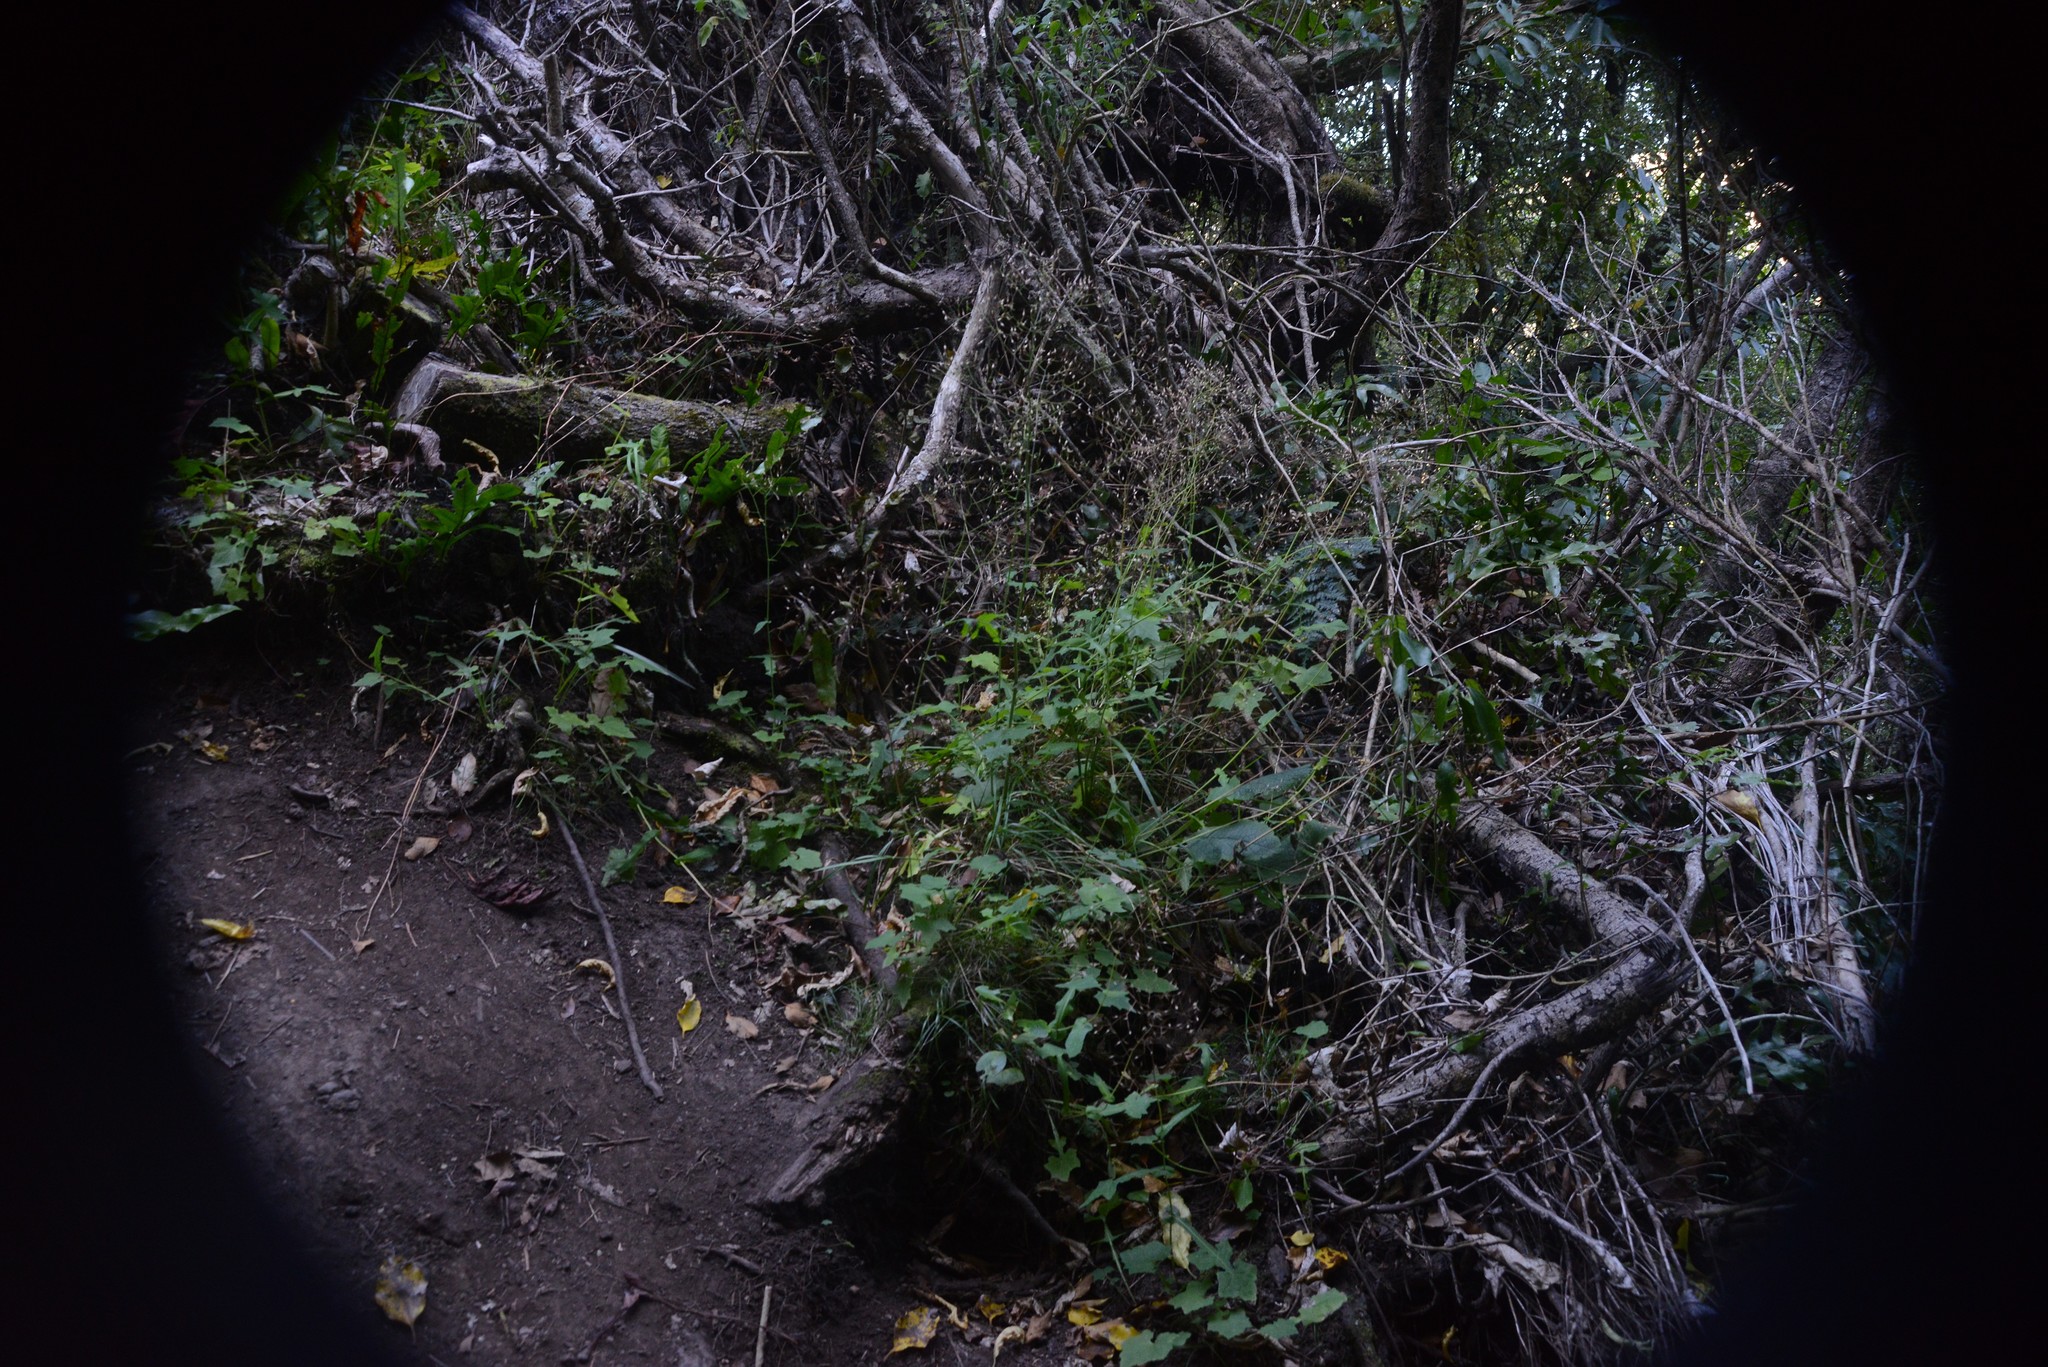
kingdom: Plantae
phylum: Tracheophyta
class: Magnoliopsida
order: Asterales
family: Asteraceae
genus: Mycelis
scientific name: Mycelis muralis
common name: Wall lettuce
